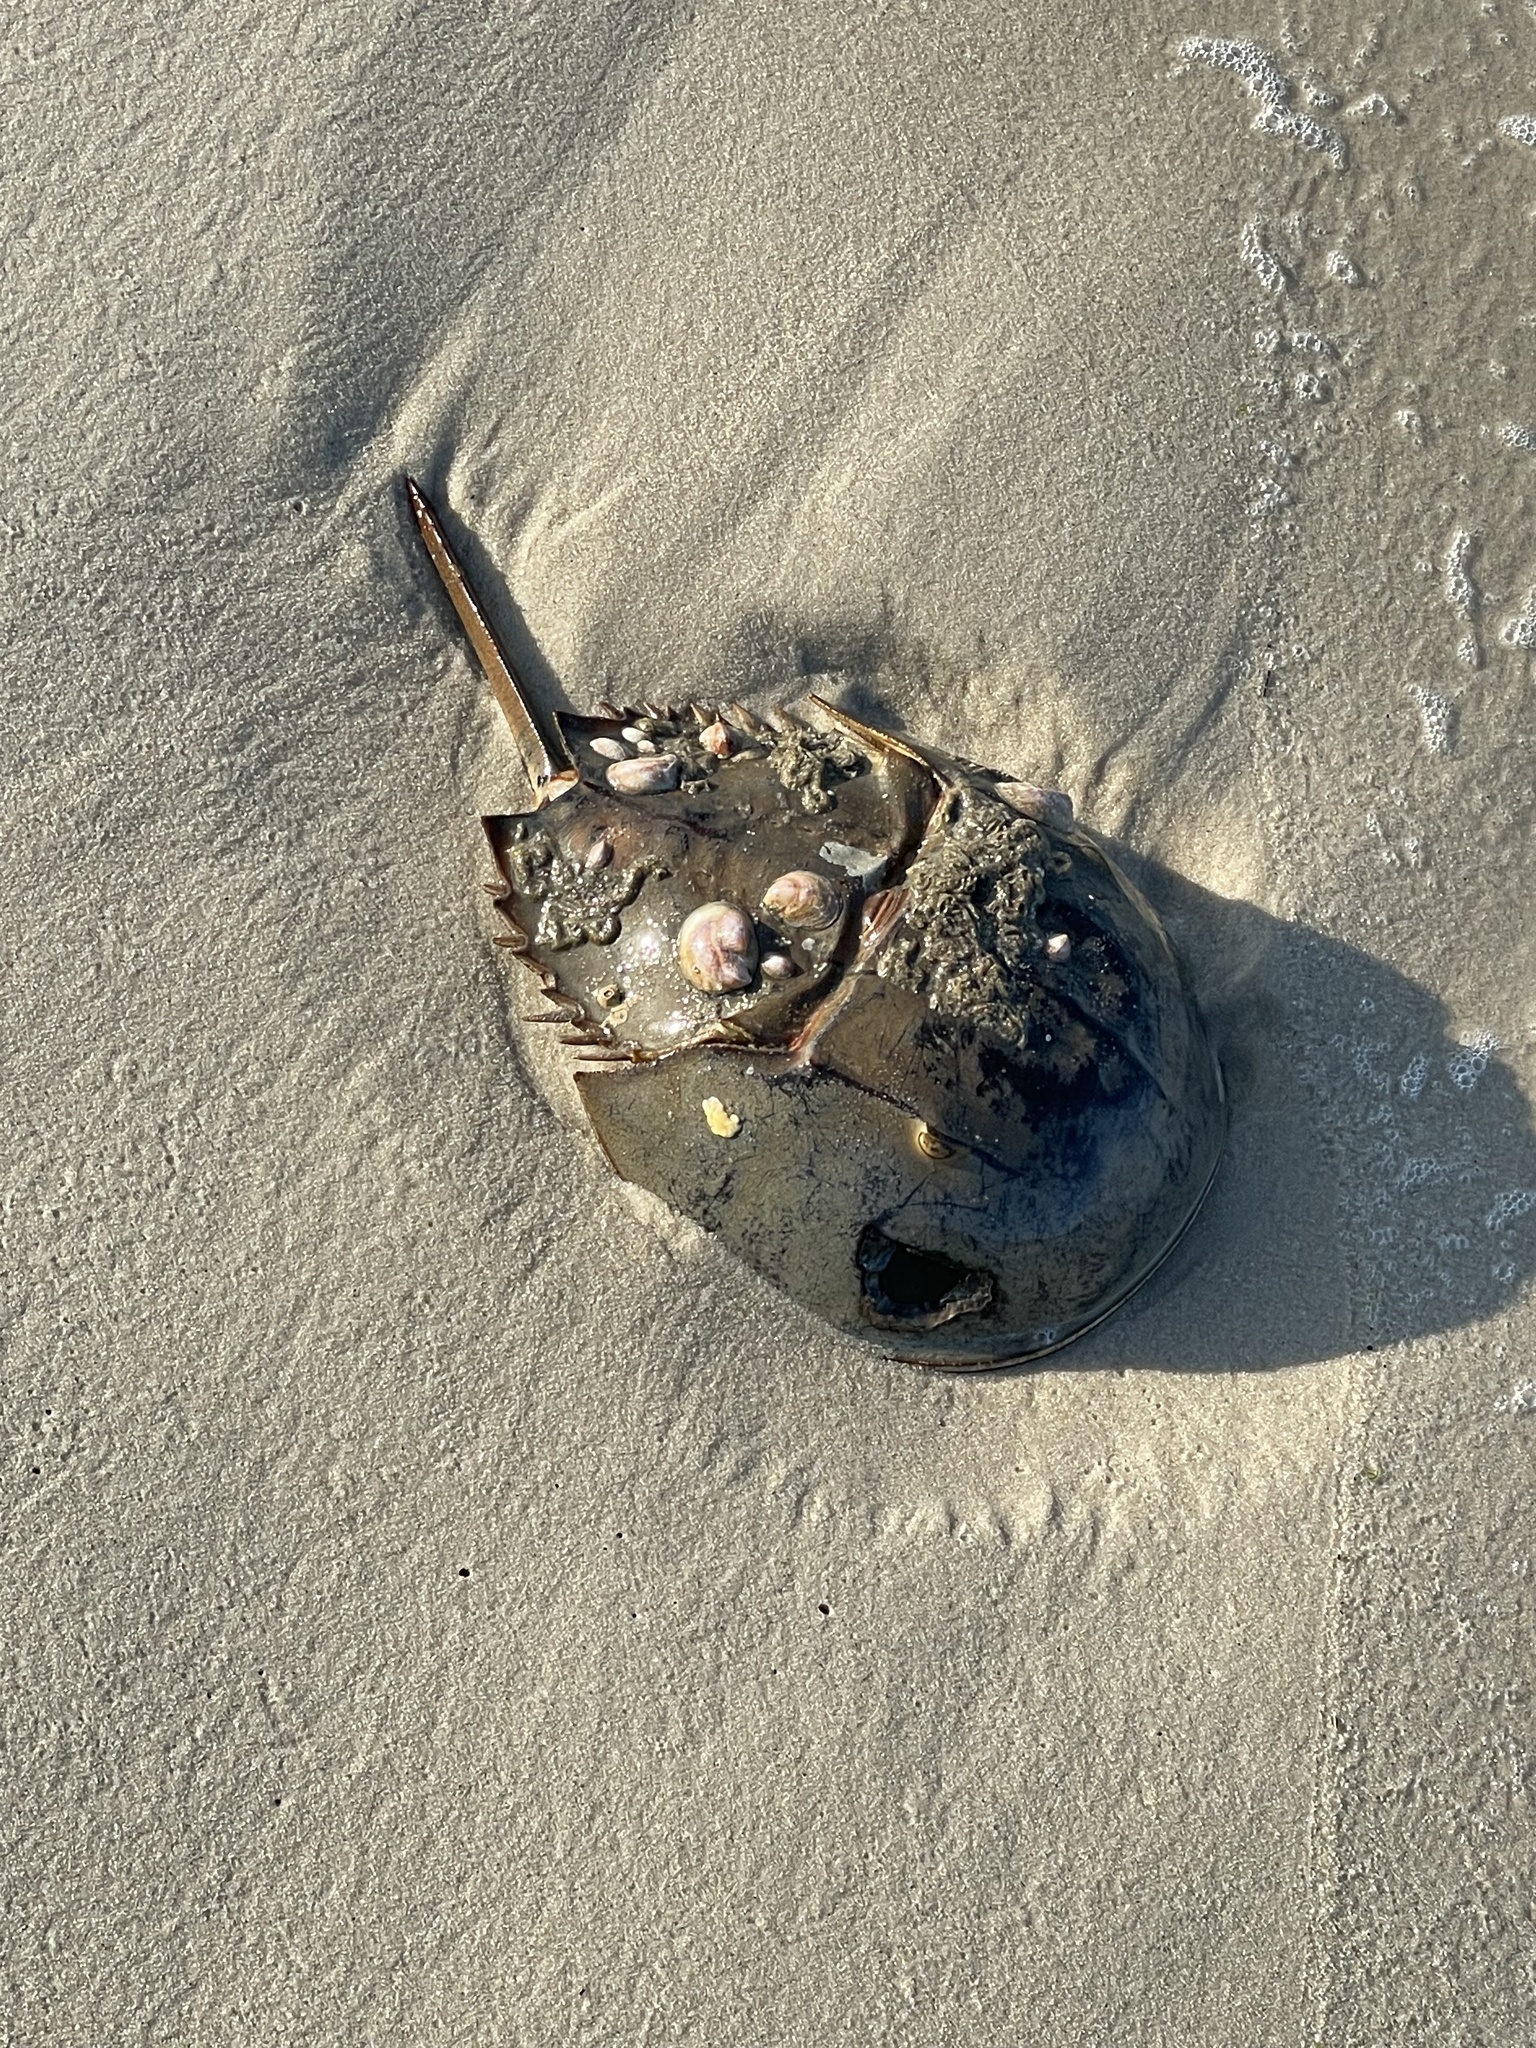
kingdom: Animalia
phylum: Arthropoda
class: Merostomata
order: Xiphosurida
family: Limulidae
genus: Limulus
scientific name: Limulus polyphemus
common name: Horseshoe crab
